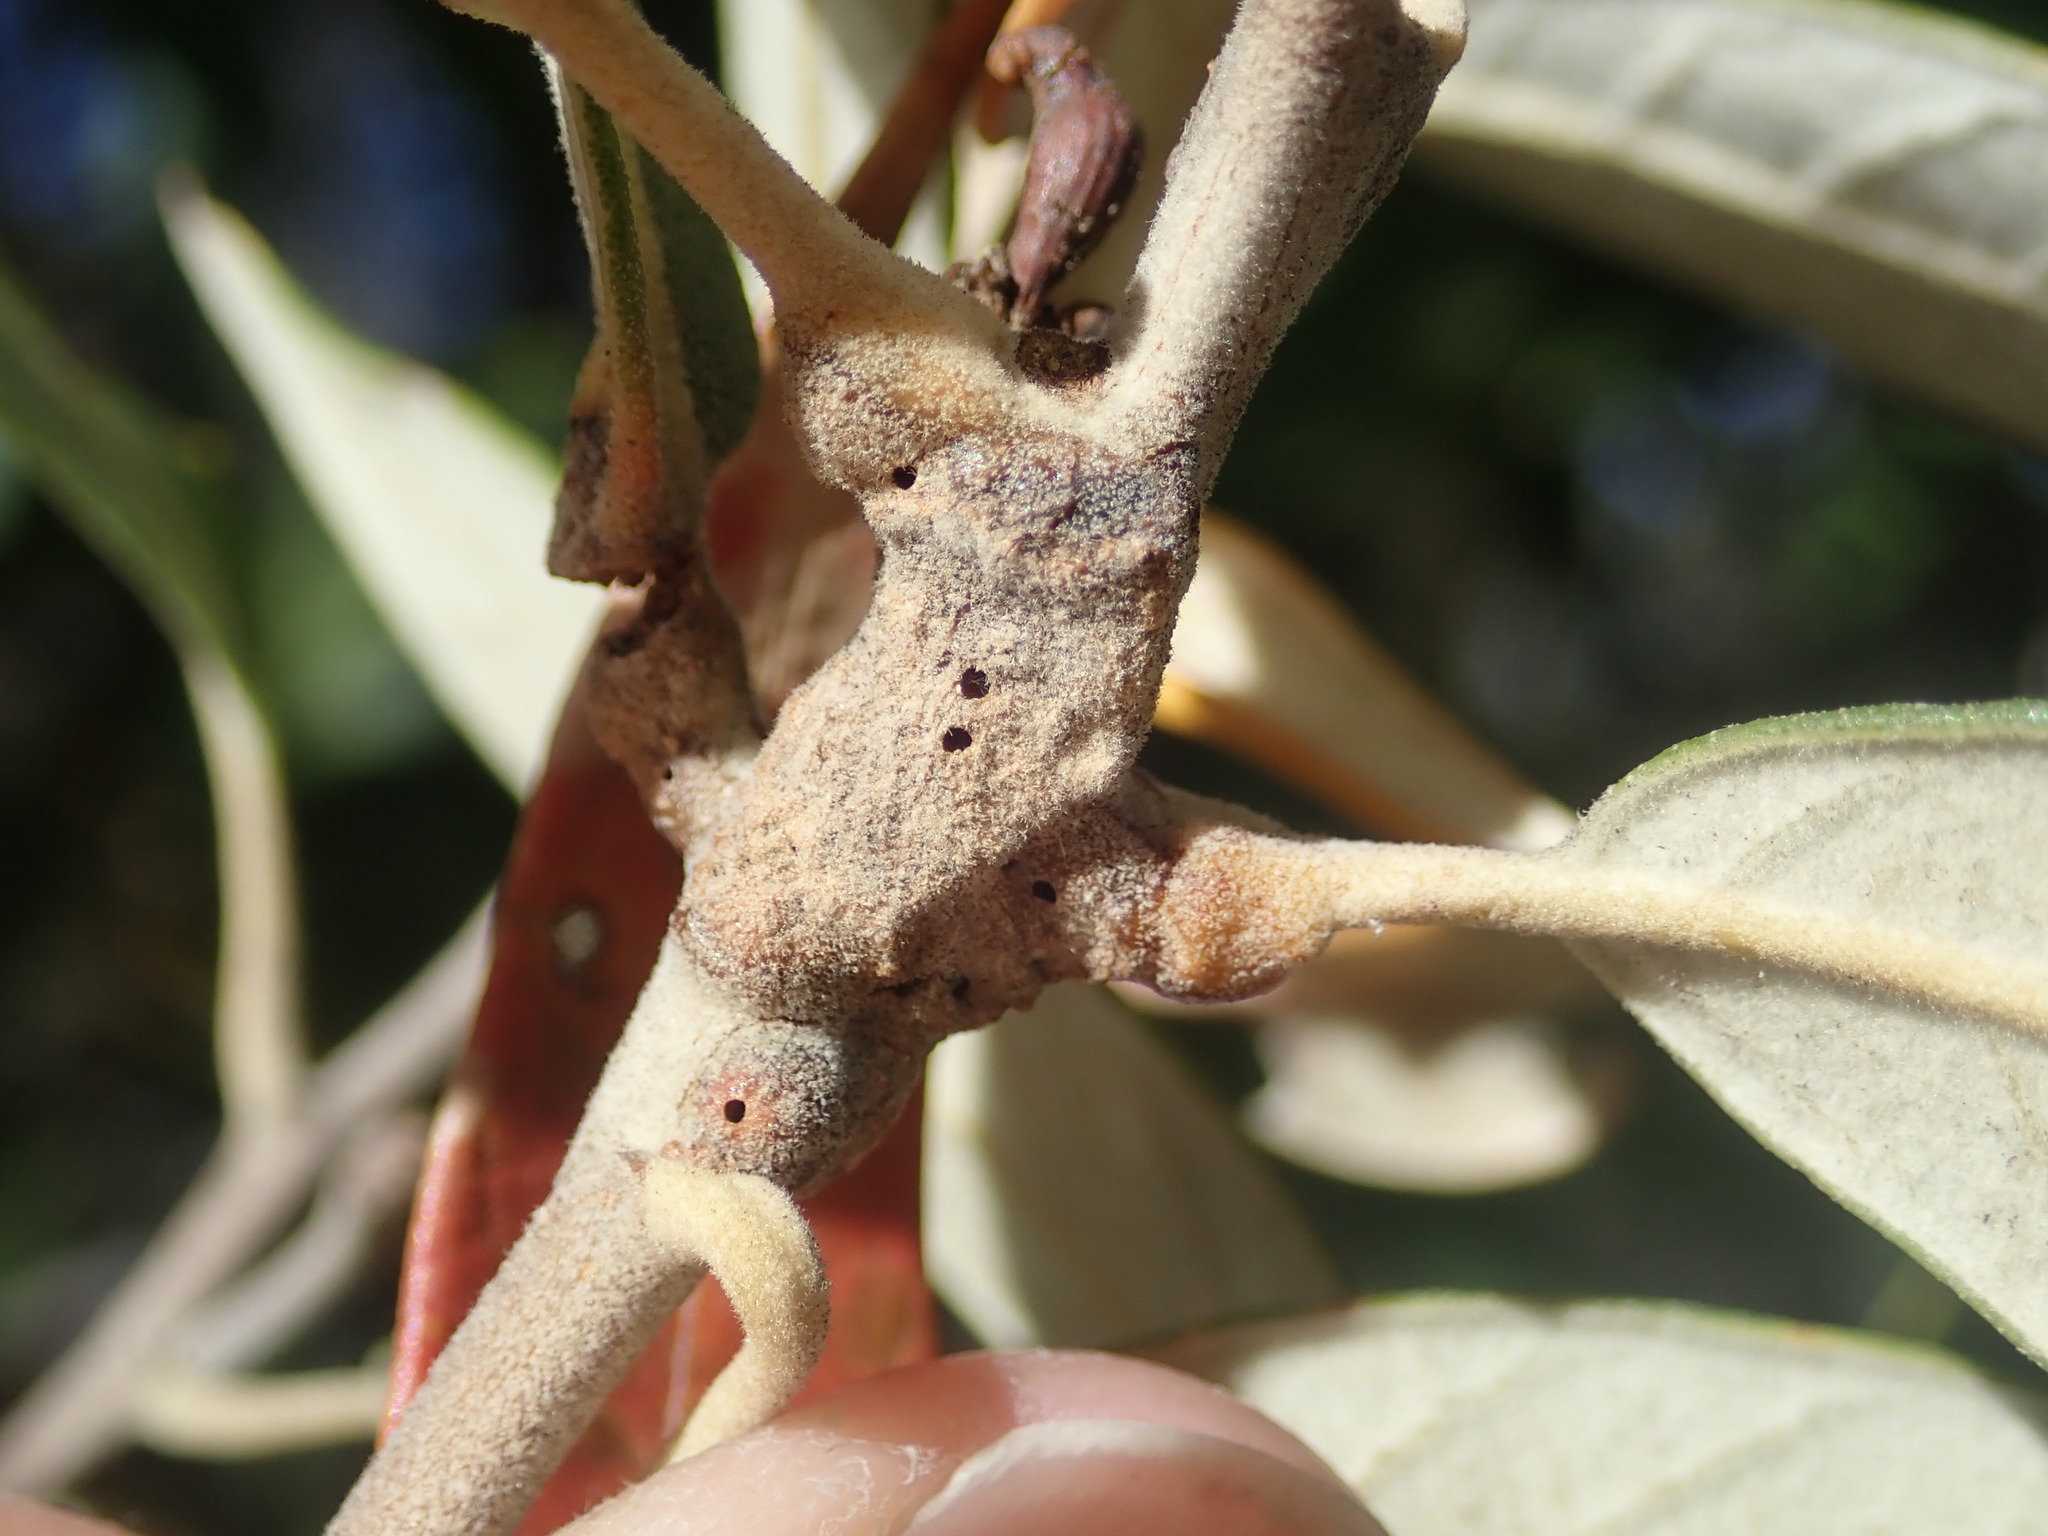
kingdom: Animalia
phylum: Arthropoda
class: Insecta
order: Hymenoptera
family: Cynipidae
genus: Melikaiella
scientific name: Melikaiella
